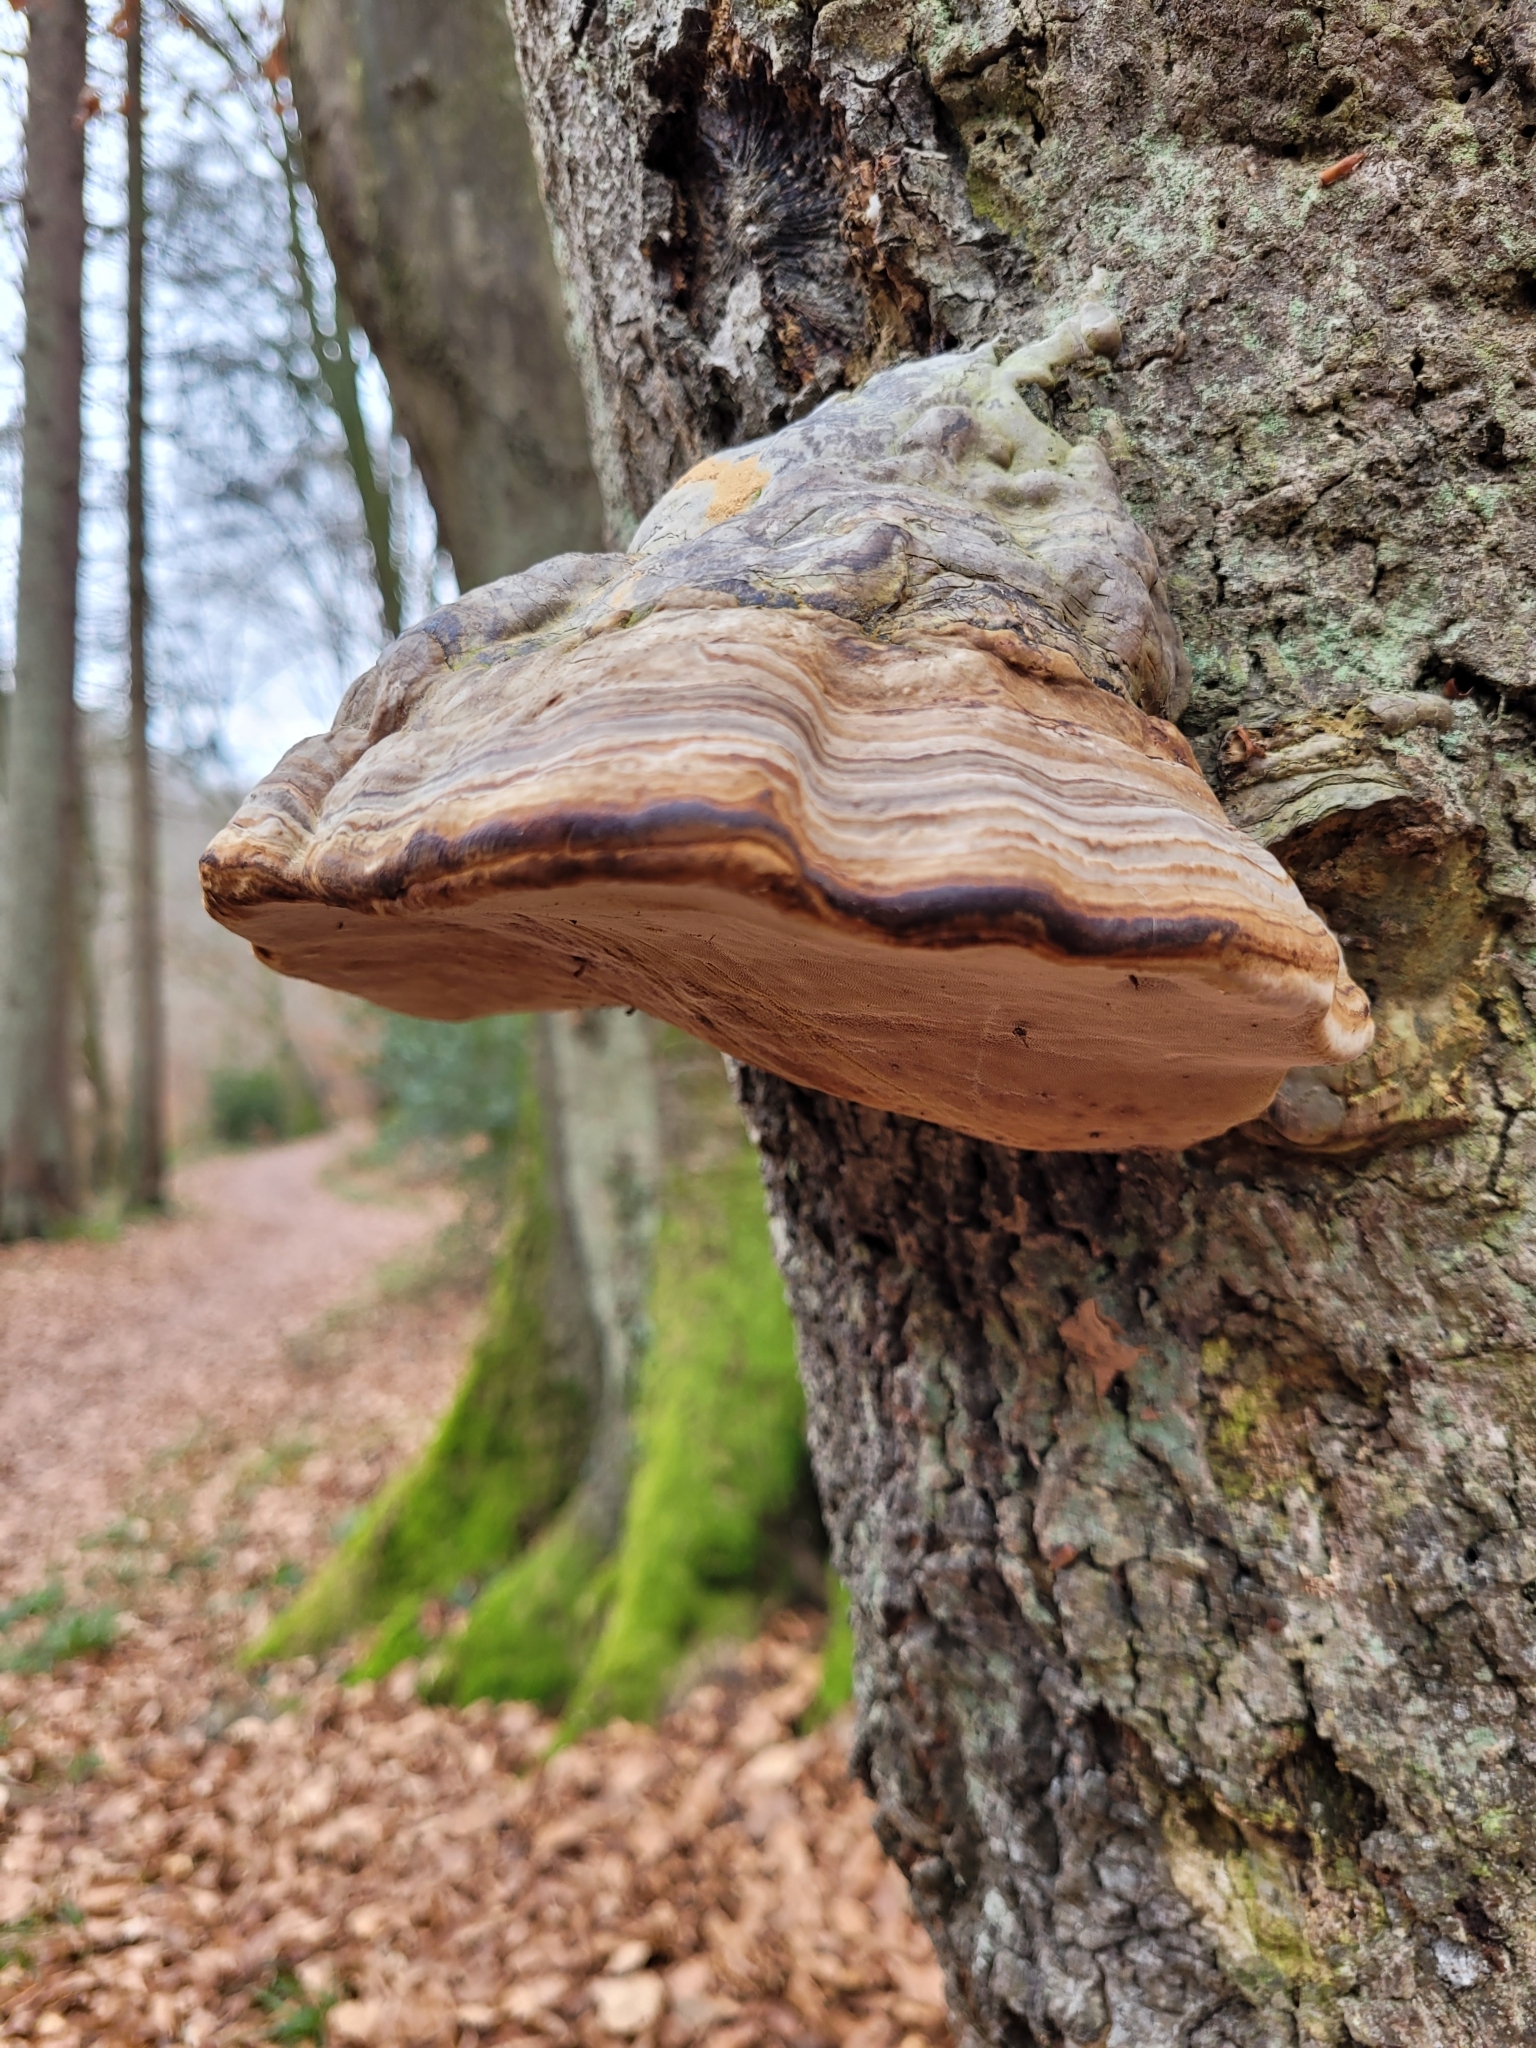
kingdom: Fungi
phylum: Basidiomycota
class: Agaricomycetes
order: Polyporales
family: Polyporaceae
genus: Fomes
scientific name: Fomes fomentarius
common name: Hoof fungus
